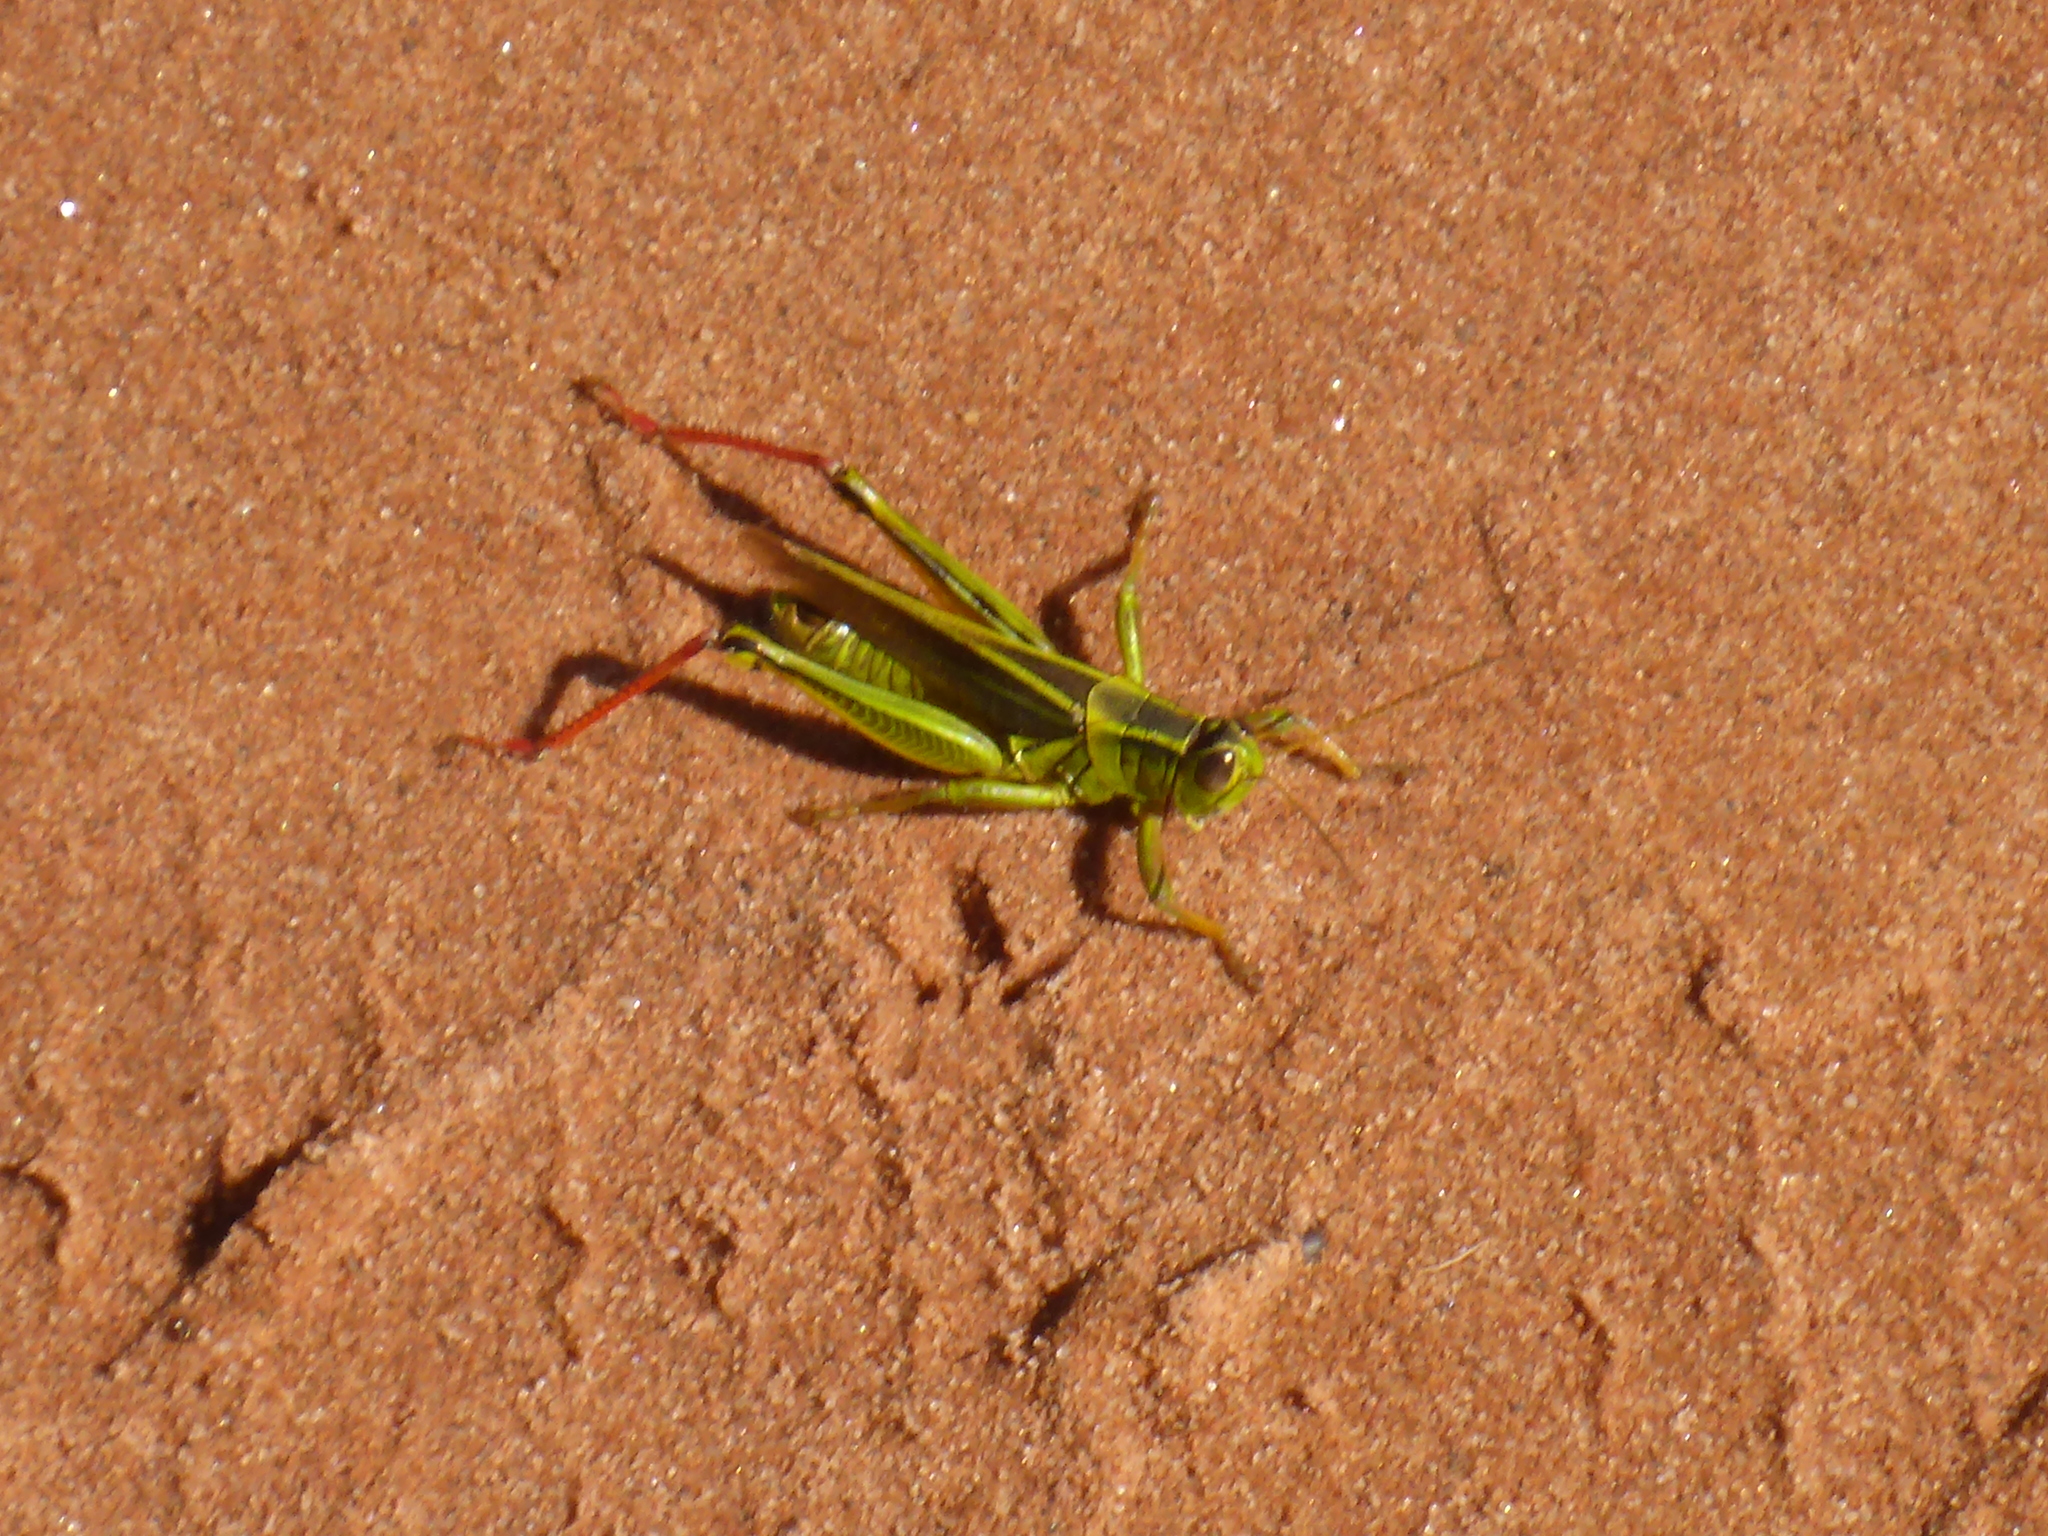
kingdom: Animalia
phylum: Arthropoda
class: Insecta
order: Orthoptera
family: Acrididae
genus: Melanoplus
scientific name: Melanoplus bivittatus
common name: Two-striped grasshopper
